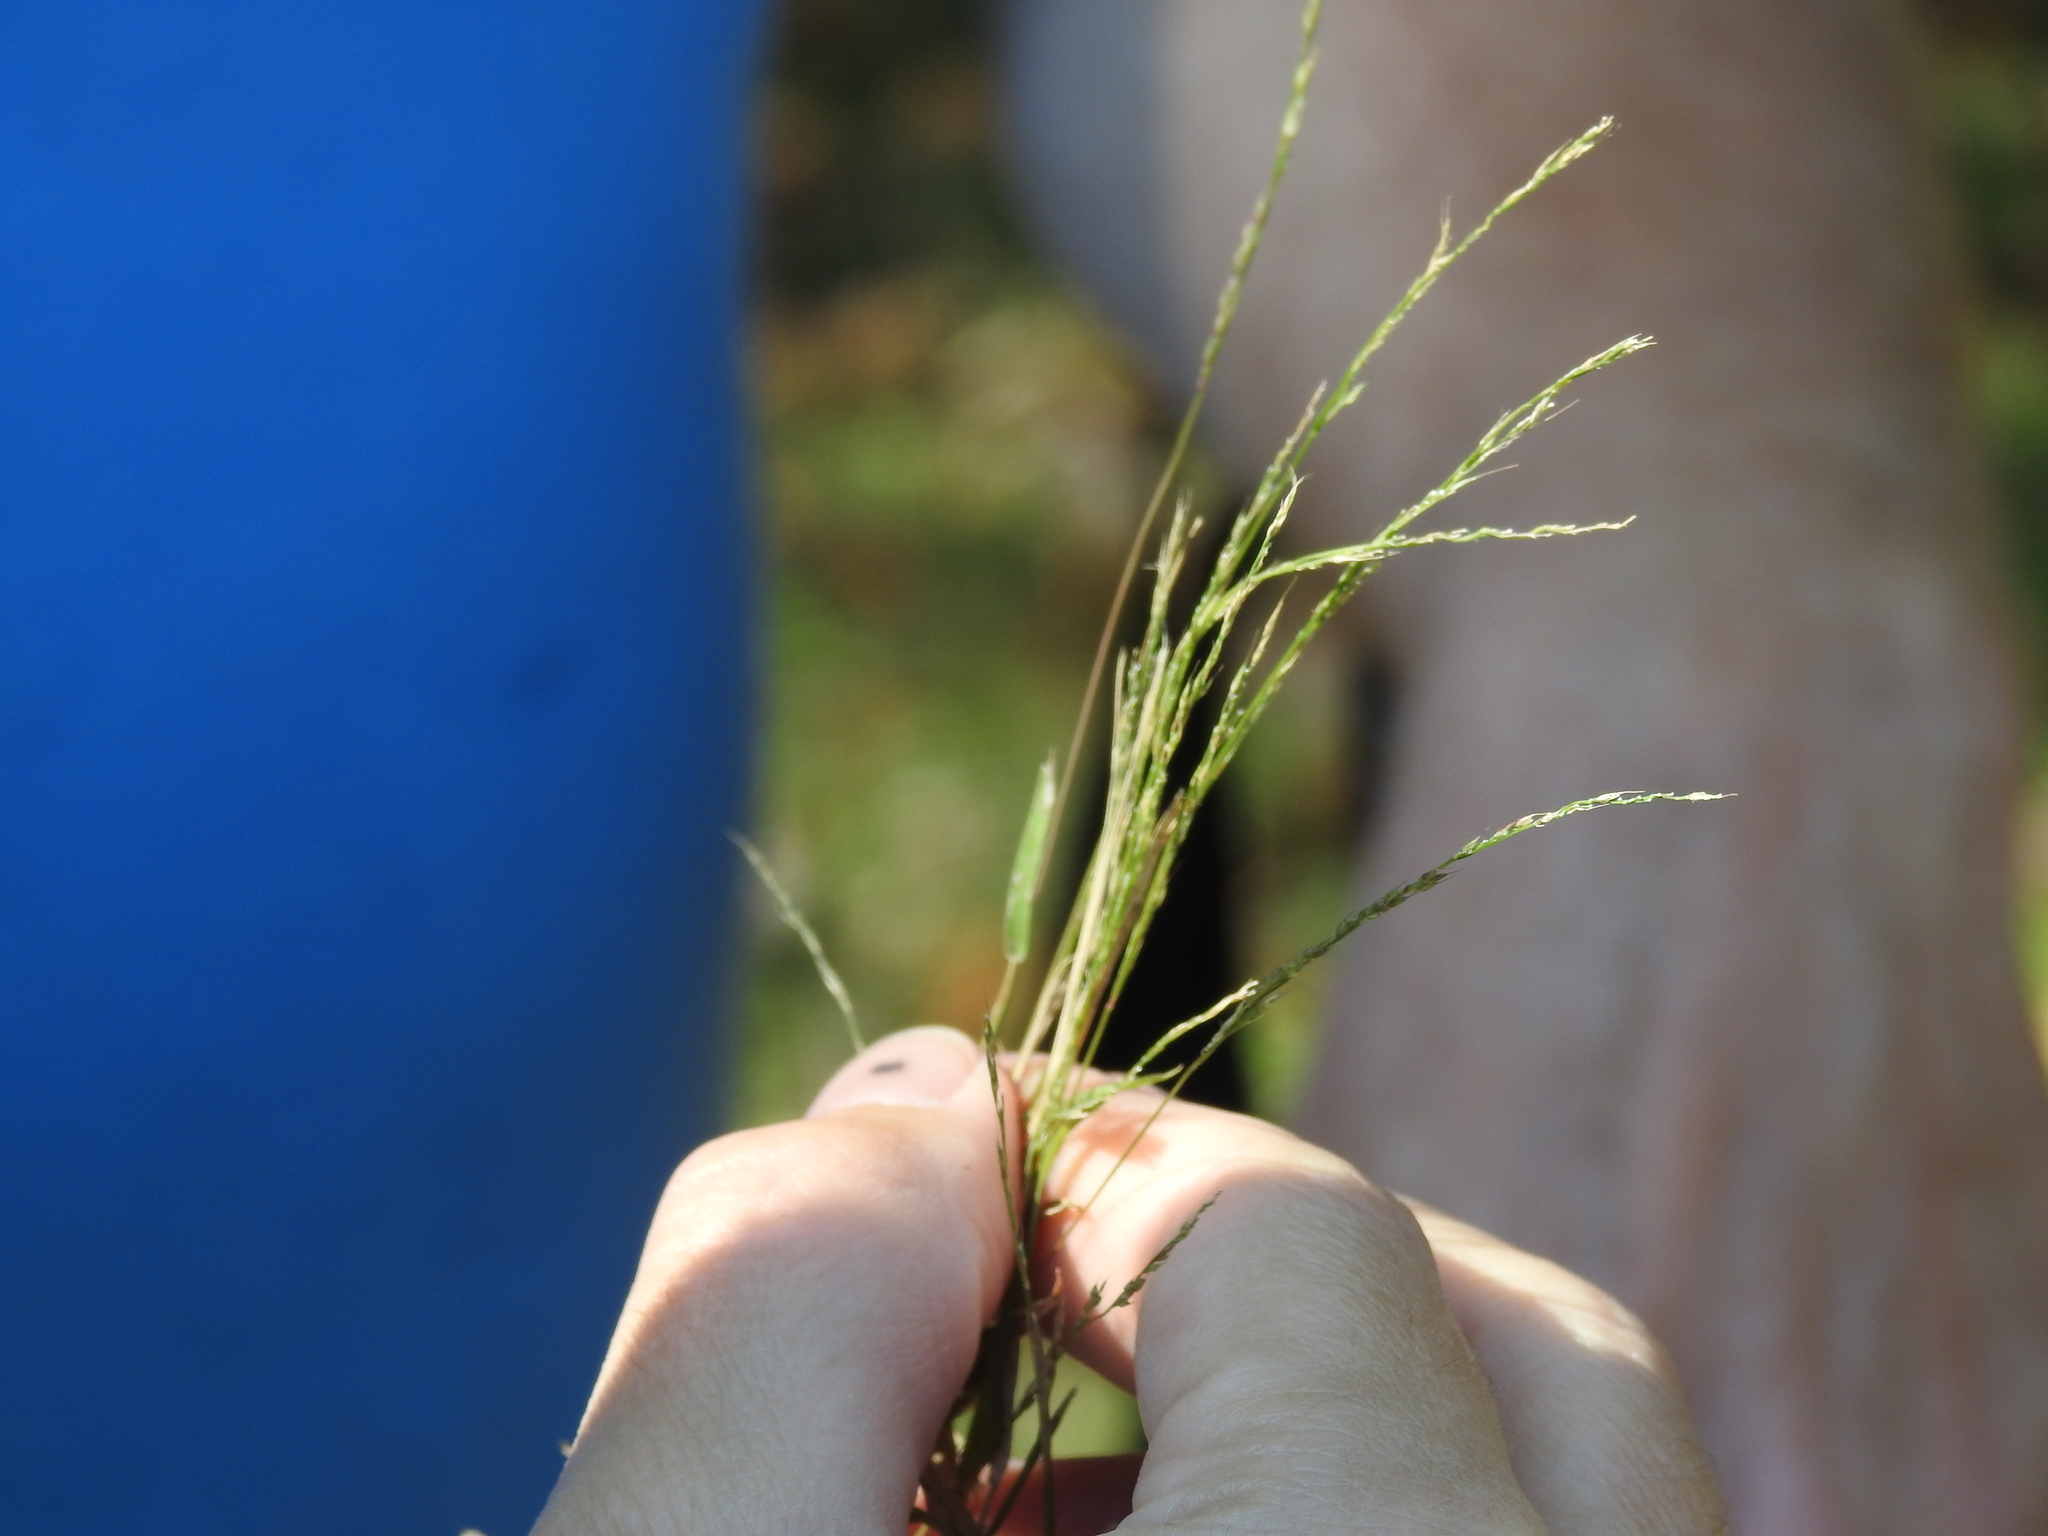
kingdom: Plantae
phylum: Tracheophyta
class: Liliopsida
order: Poales
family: Poaceae
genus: Muhlenbergia
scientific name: Muhlenbergia schreberi
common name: Nimblewill
